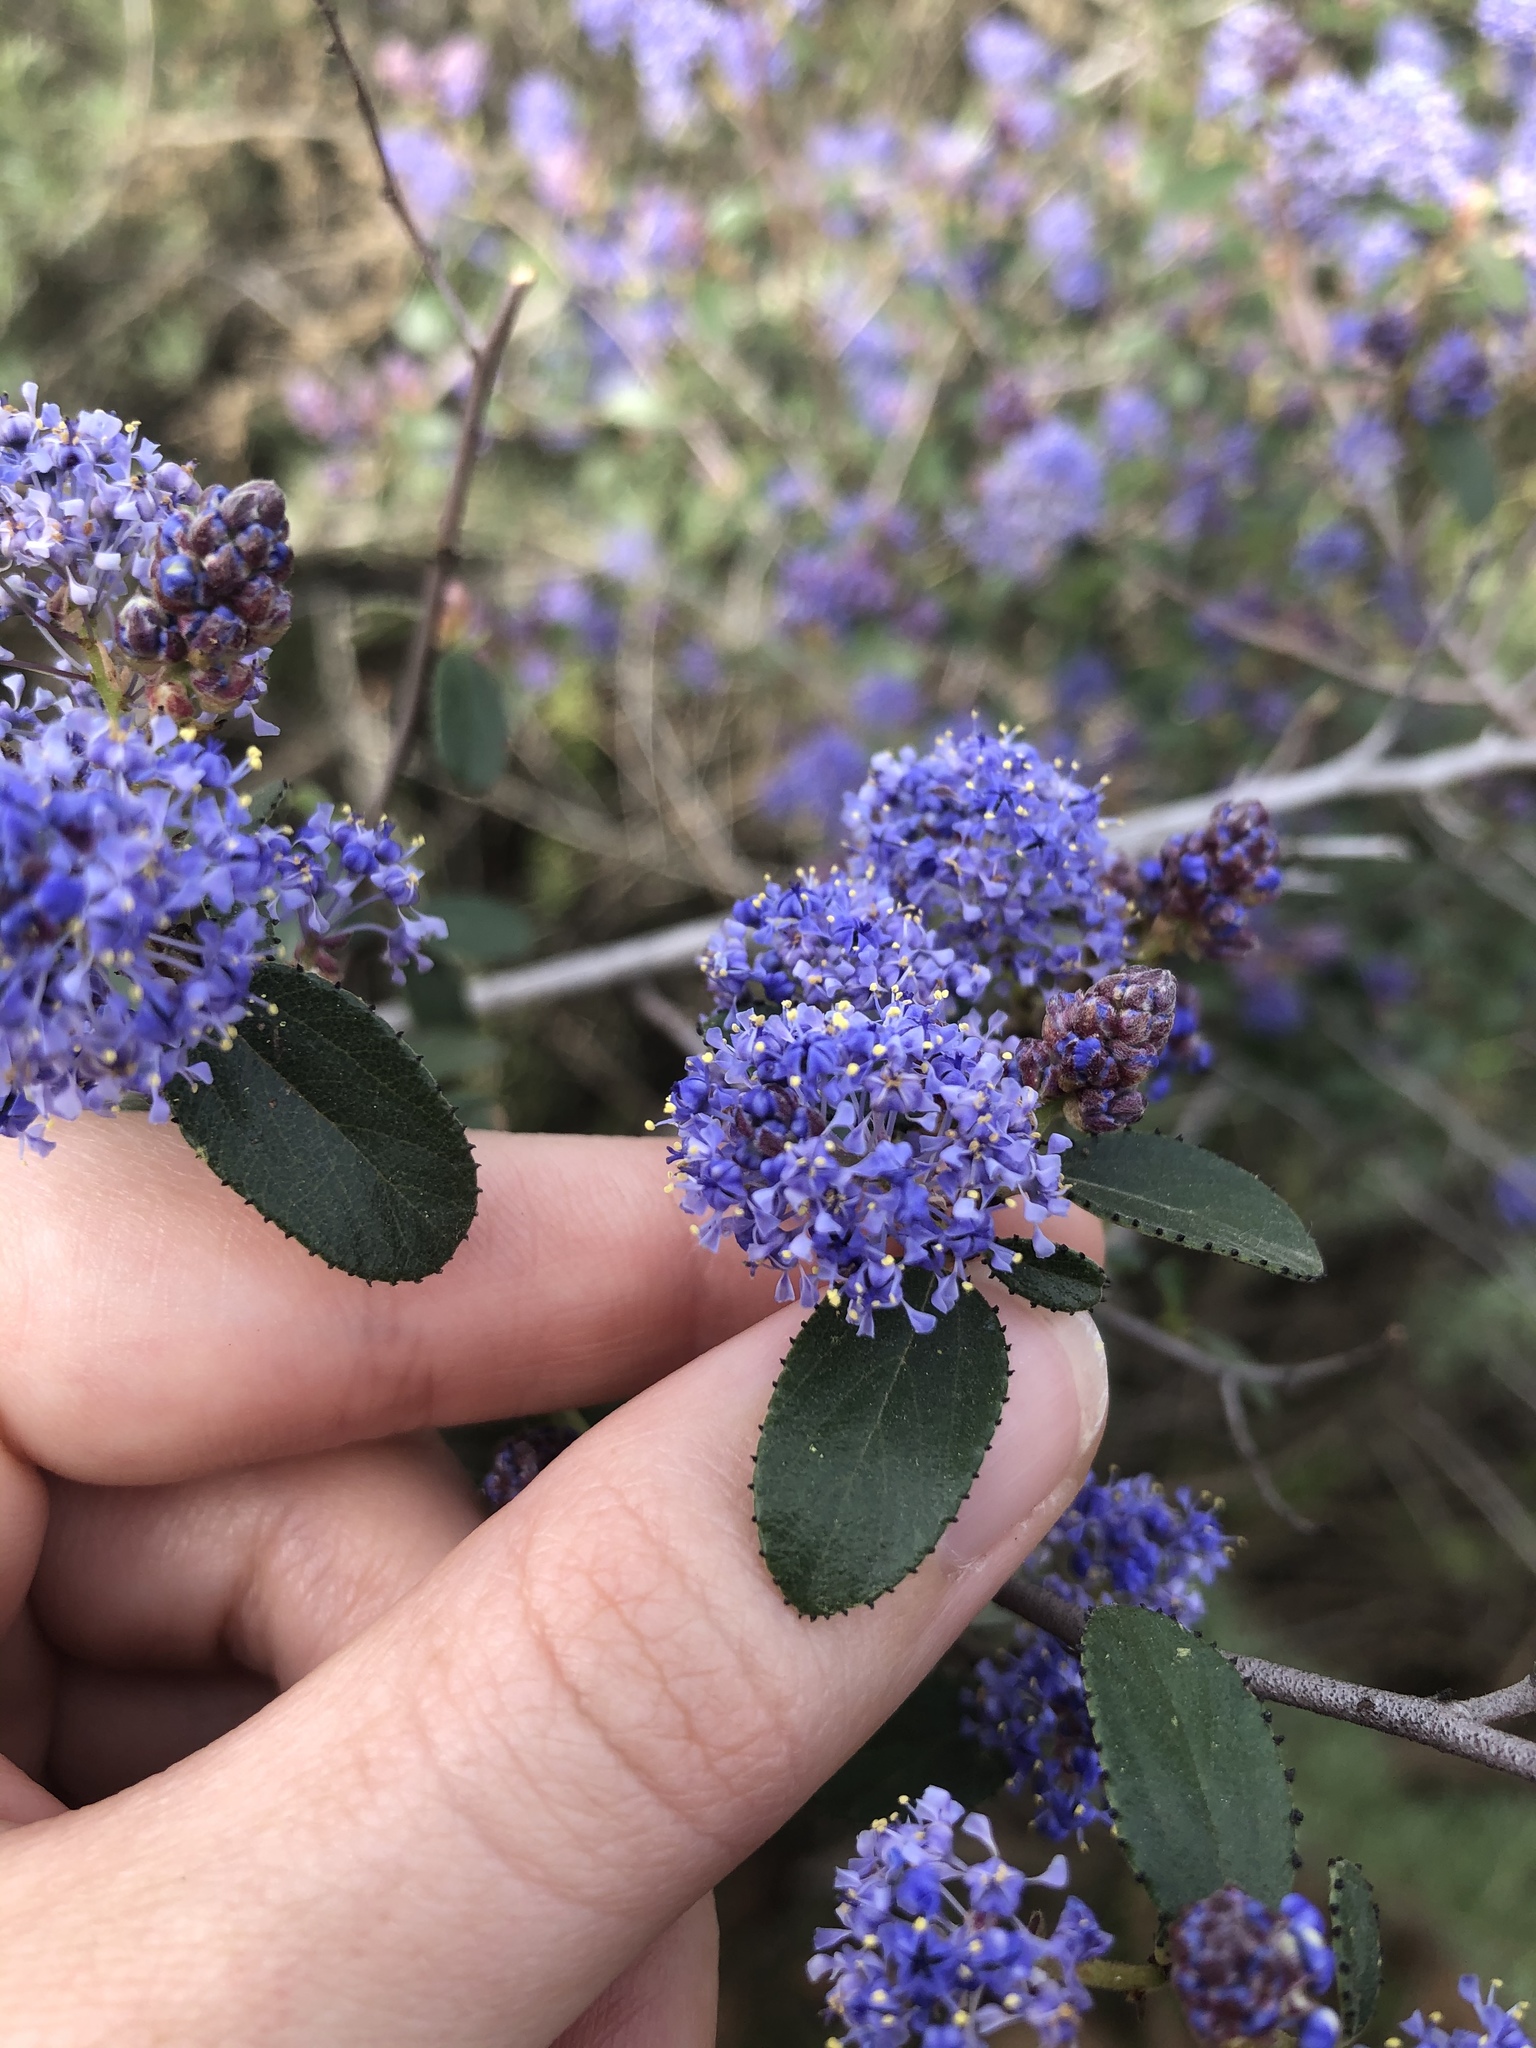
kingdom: Plantae
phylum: Tracheophyta
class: Magnoliopsida
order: Rosales
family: Rhamnaceae
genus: Ceanothus
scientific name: Ceanothus tomentosus
